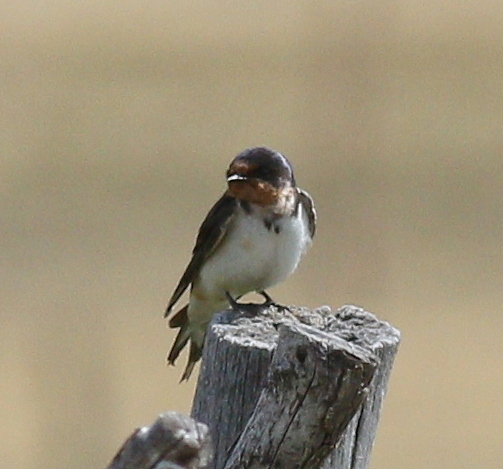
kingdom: Animalia
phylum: Chordata
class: Aves
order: Passeriformes
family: Hirundinidae
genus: Hirundo
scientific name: Hirundo rustica
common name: Barn swallow
